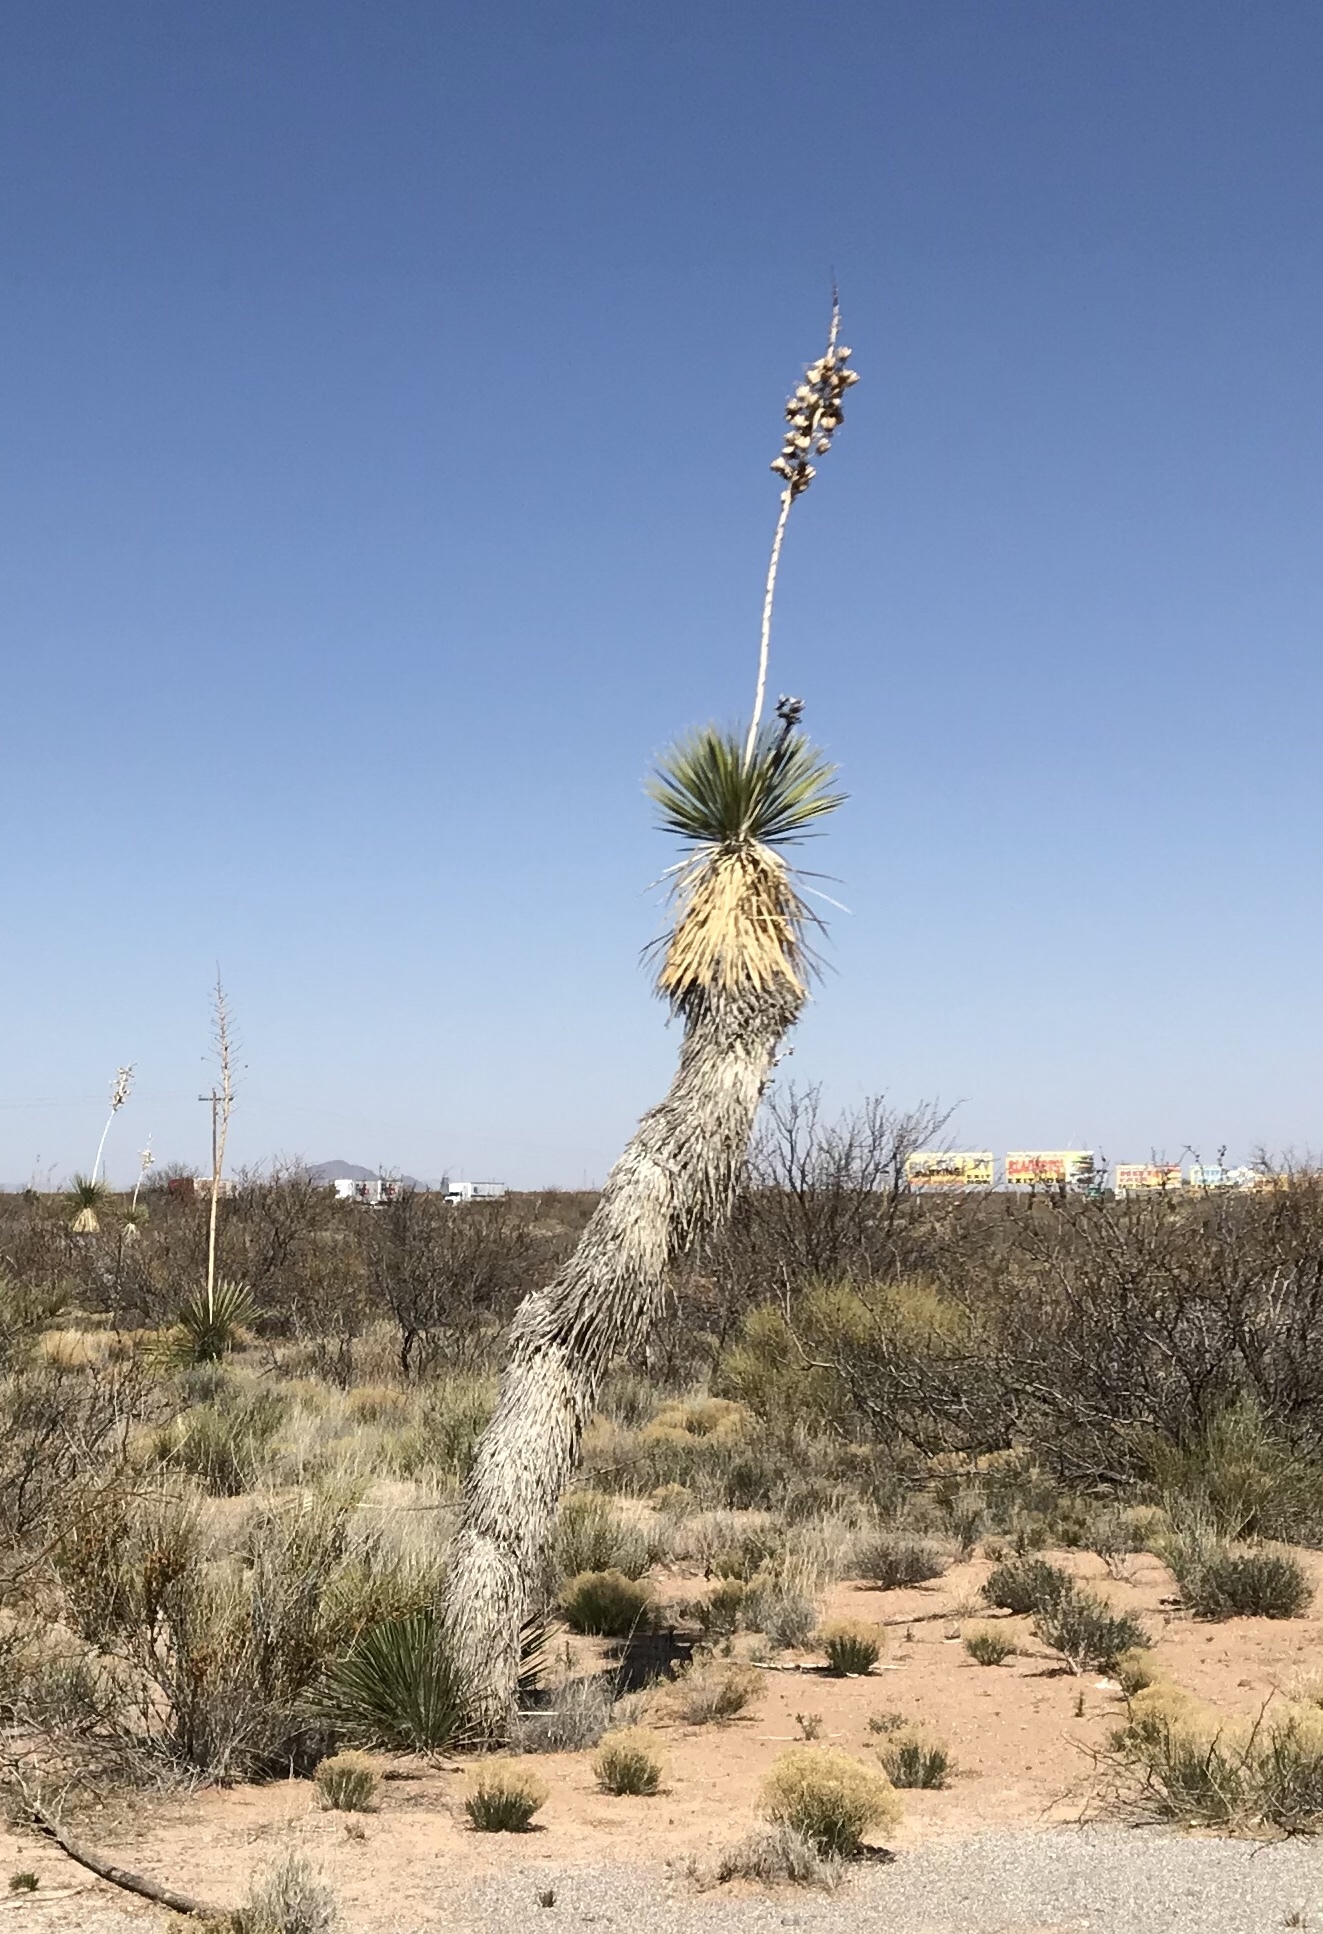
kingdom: Plantae
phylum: Tracheophyta
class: Liliopsida
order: Asparagales
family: Asparagaceae
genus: Yucca
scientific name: Yucca elata
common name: Palmella
